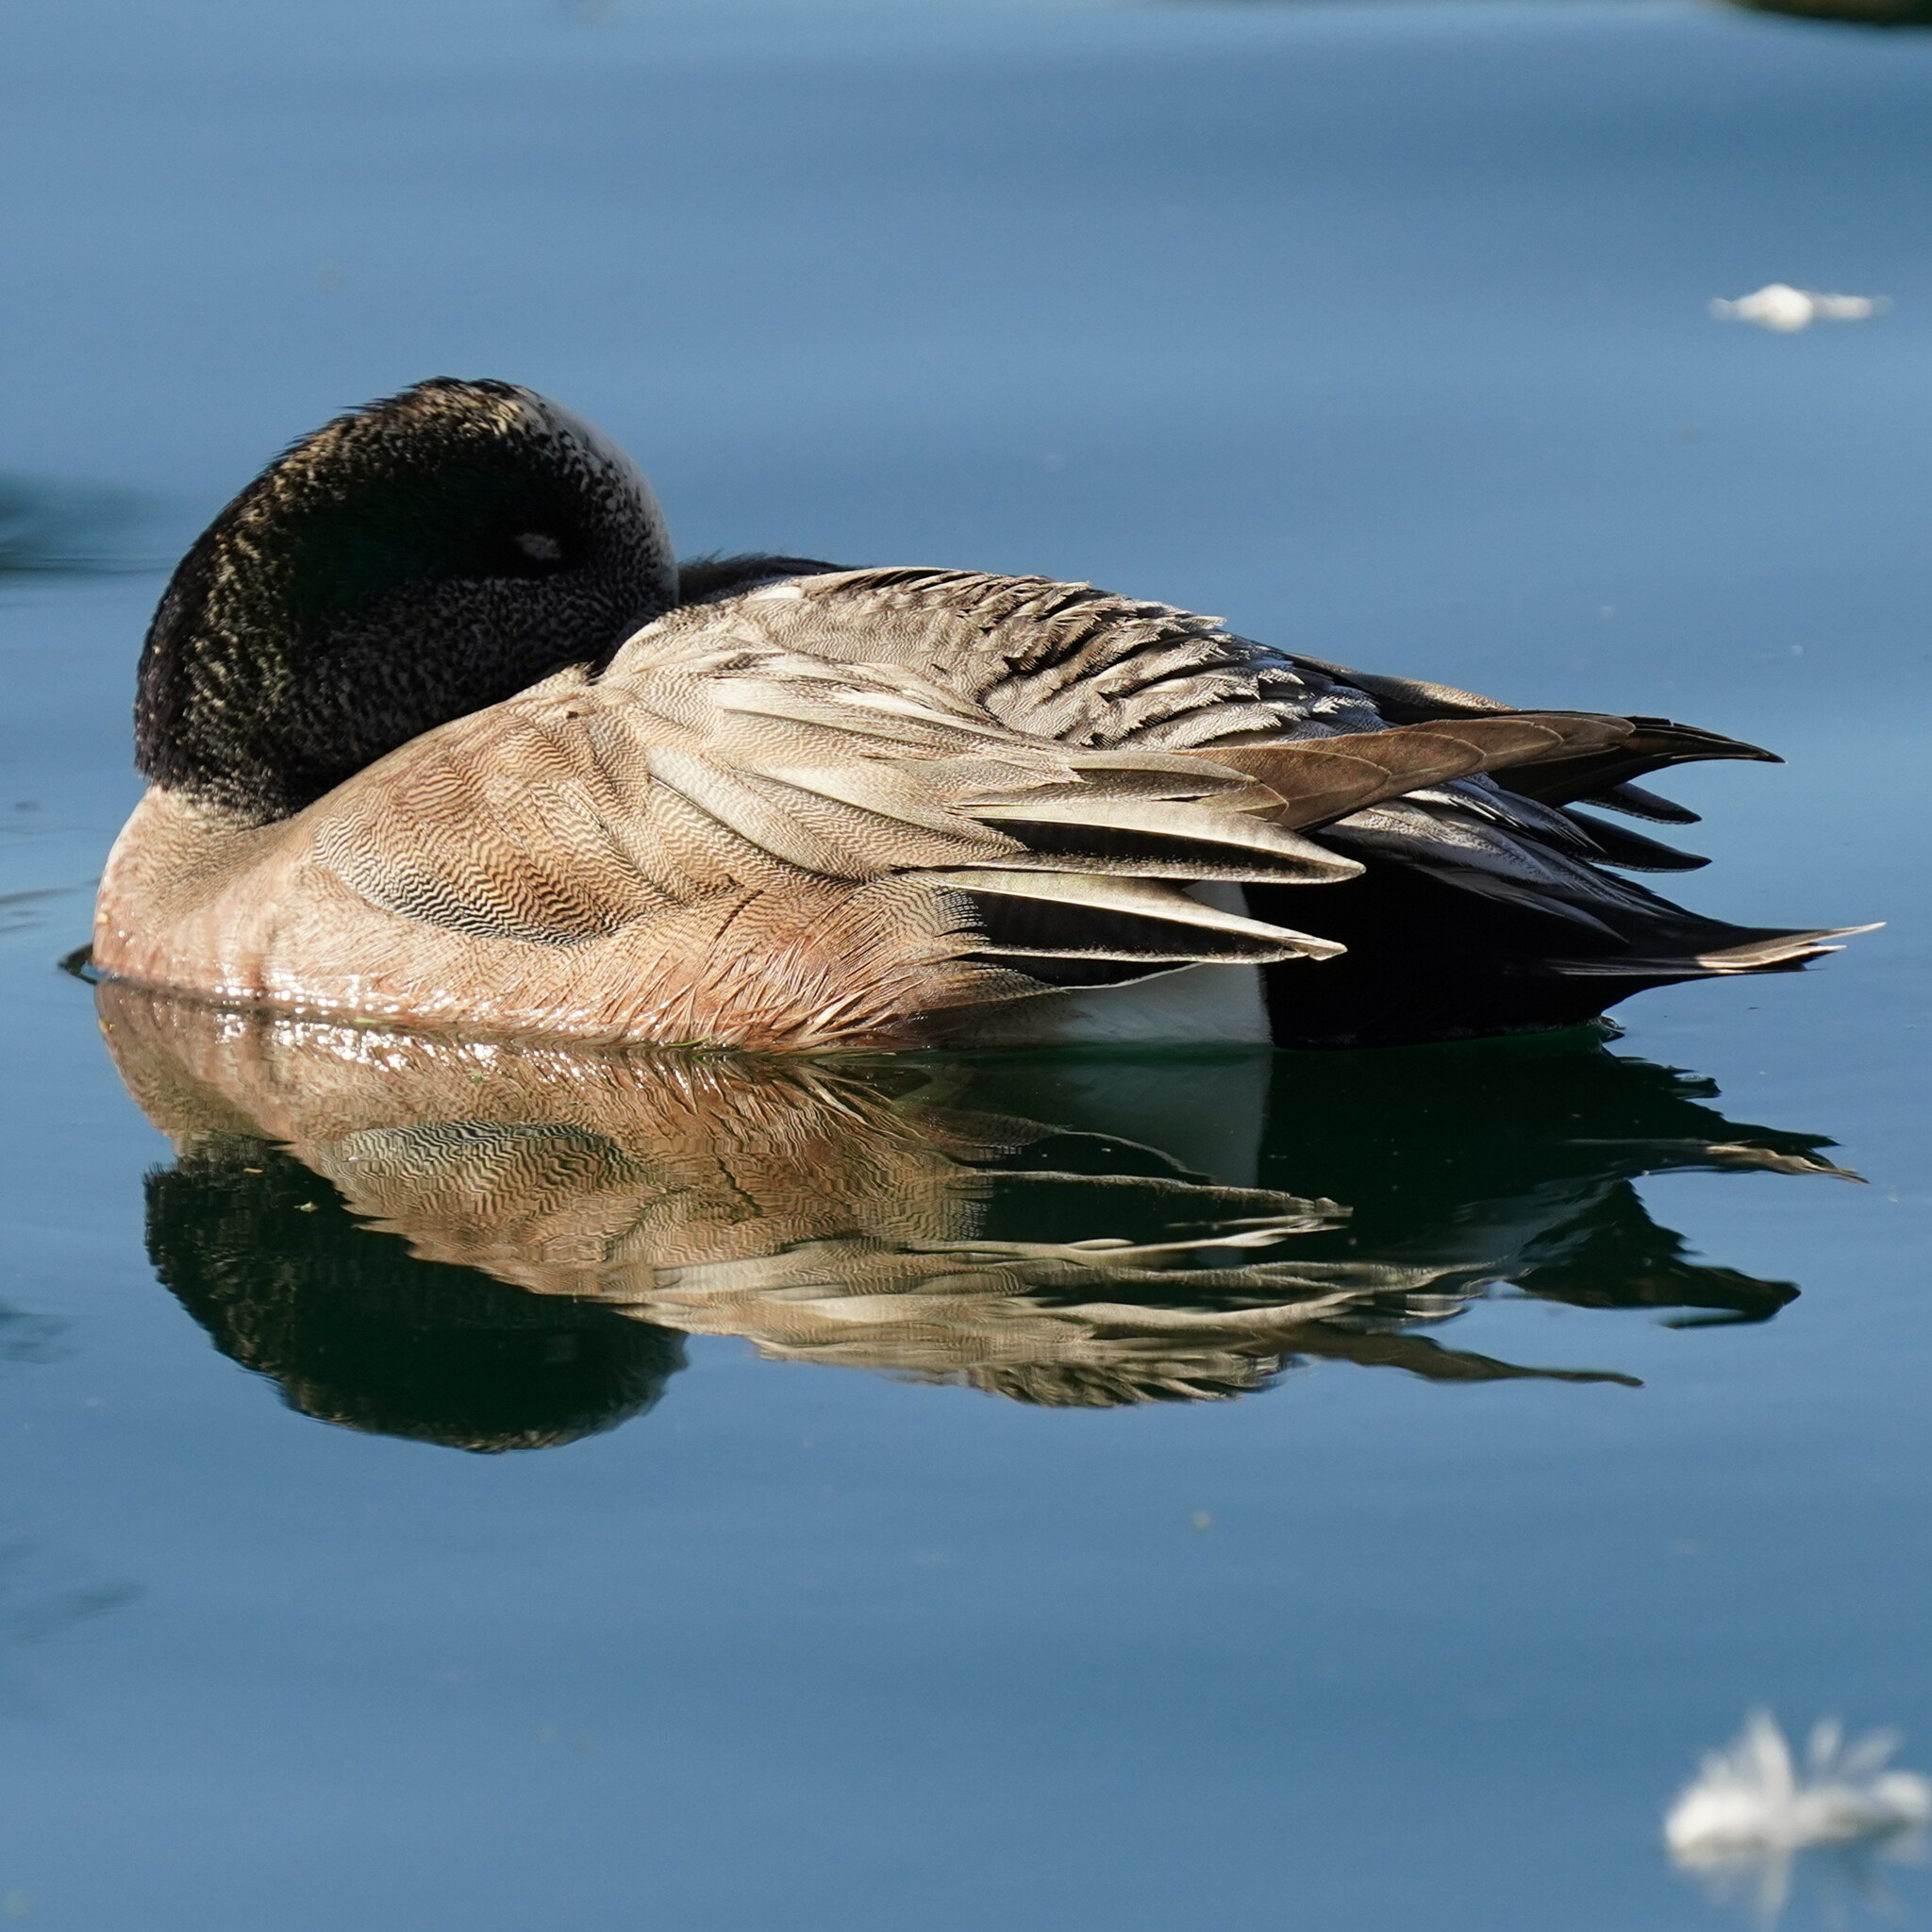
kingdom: Animalia
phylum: Chordata
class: Aves
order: Anseriformes
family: Anatidae
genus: Mareca
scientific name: Mareca americana
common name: American wigeon
